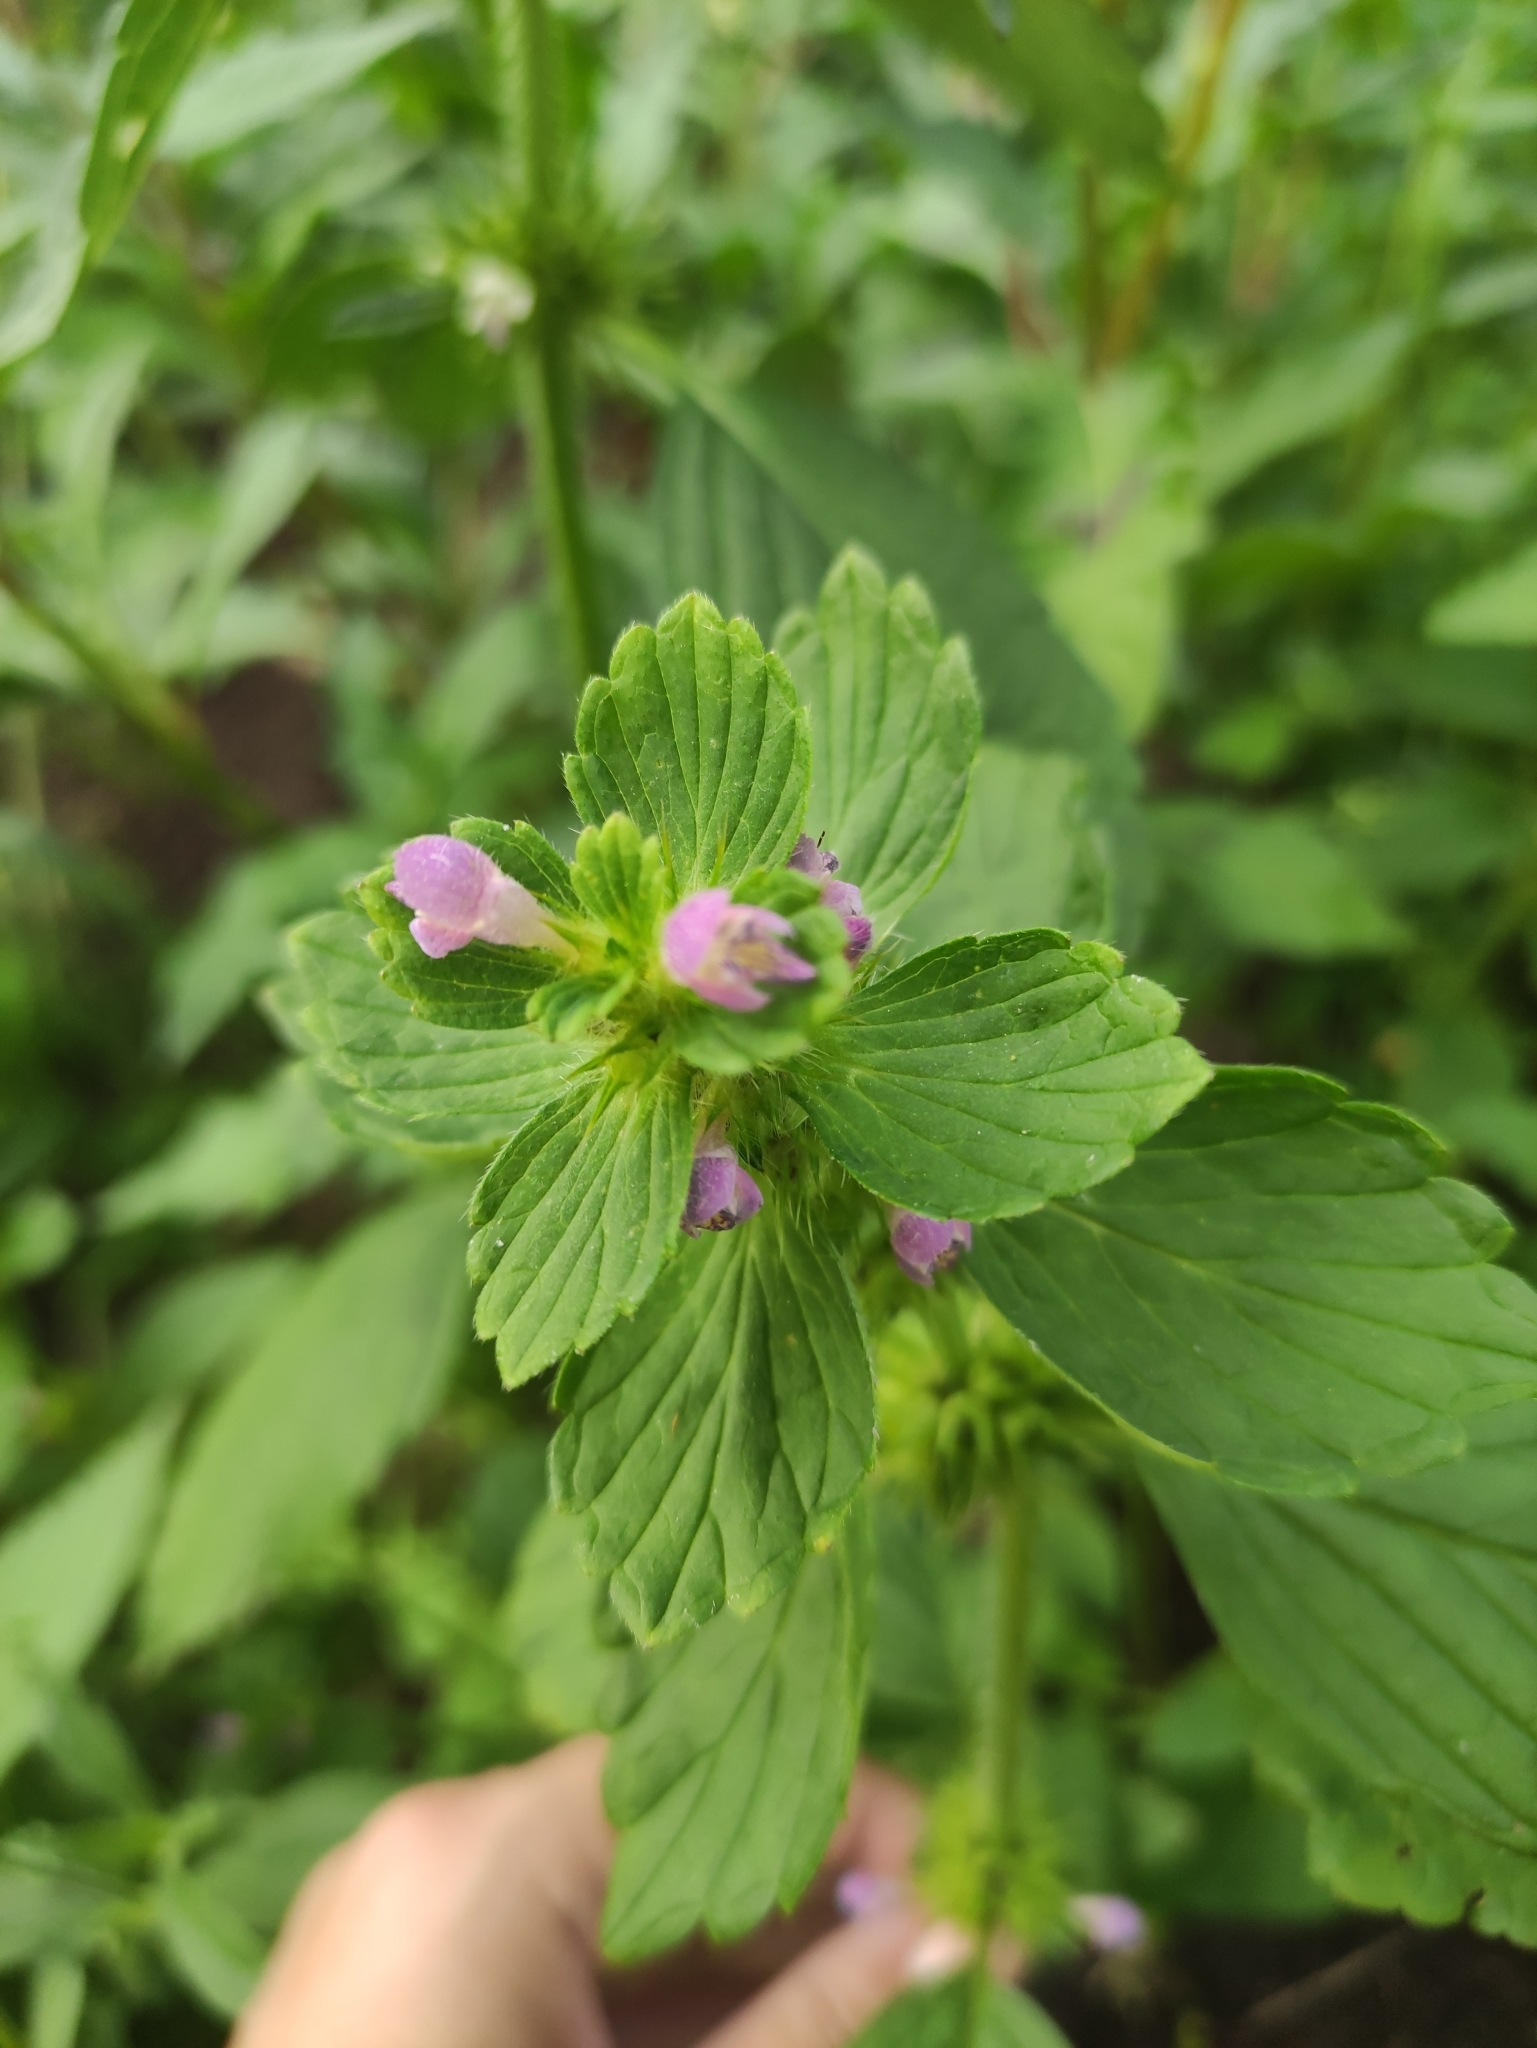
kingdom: Plantae
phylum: Tracheophyta
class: Magnoliopsida
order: Lamiales
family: Lamiaceae
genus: Galeopsis
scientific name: Galeopsis bifida
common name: Bifid hemp-nettle
